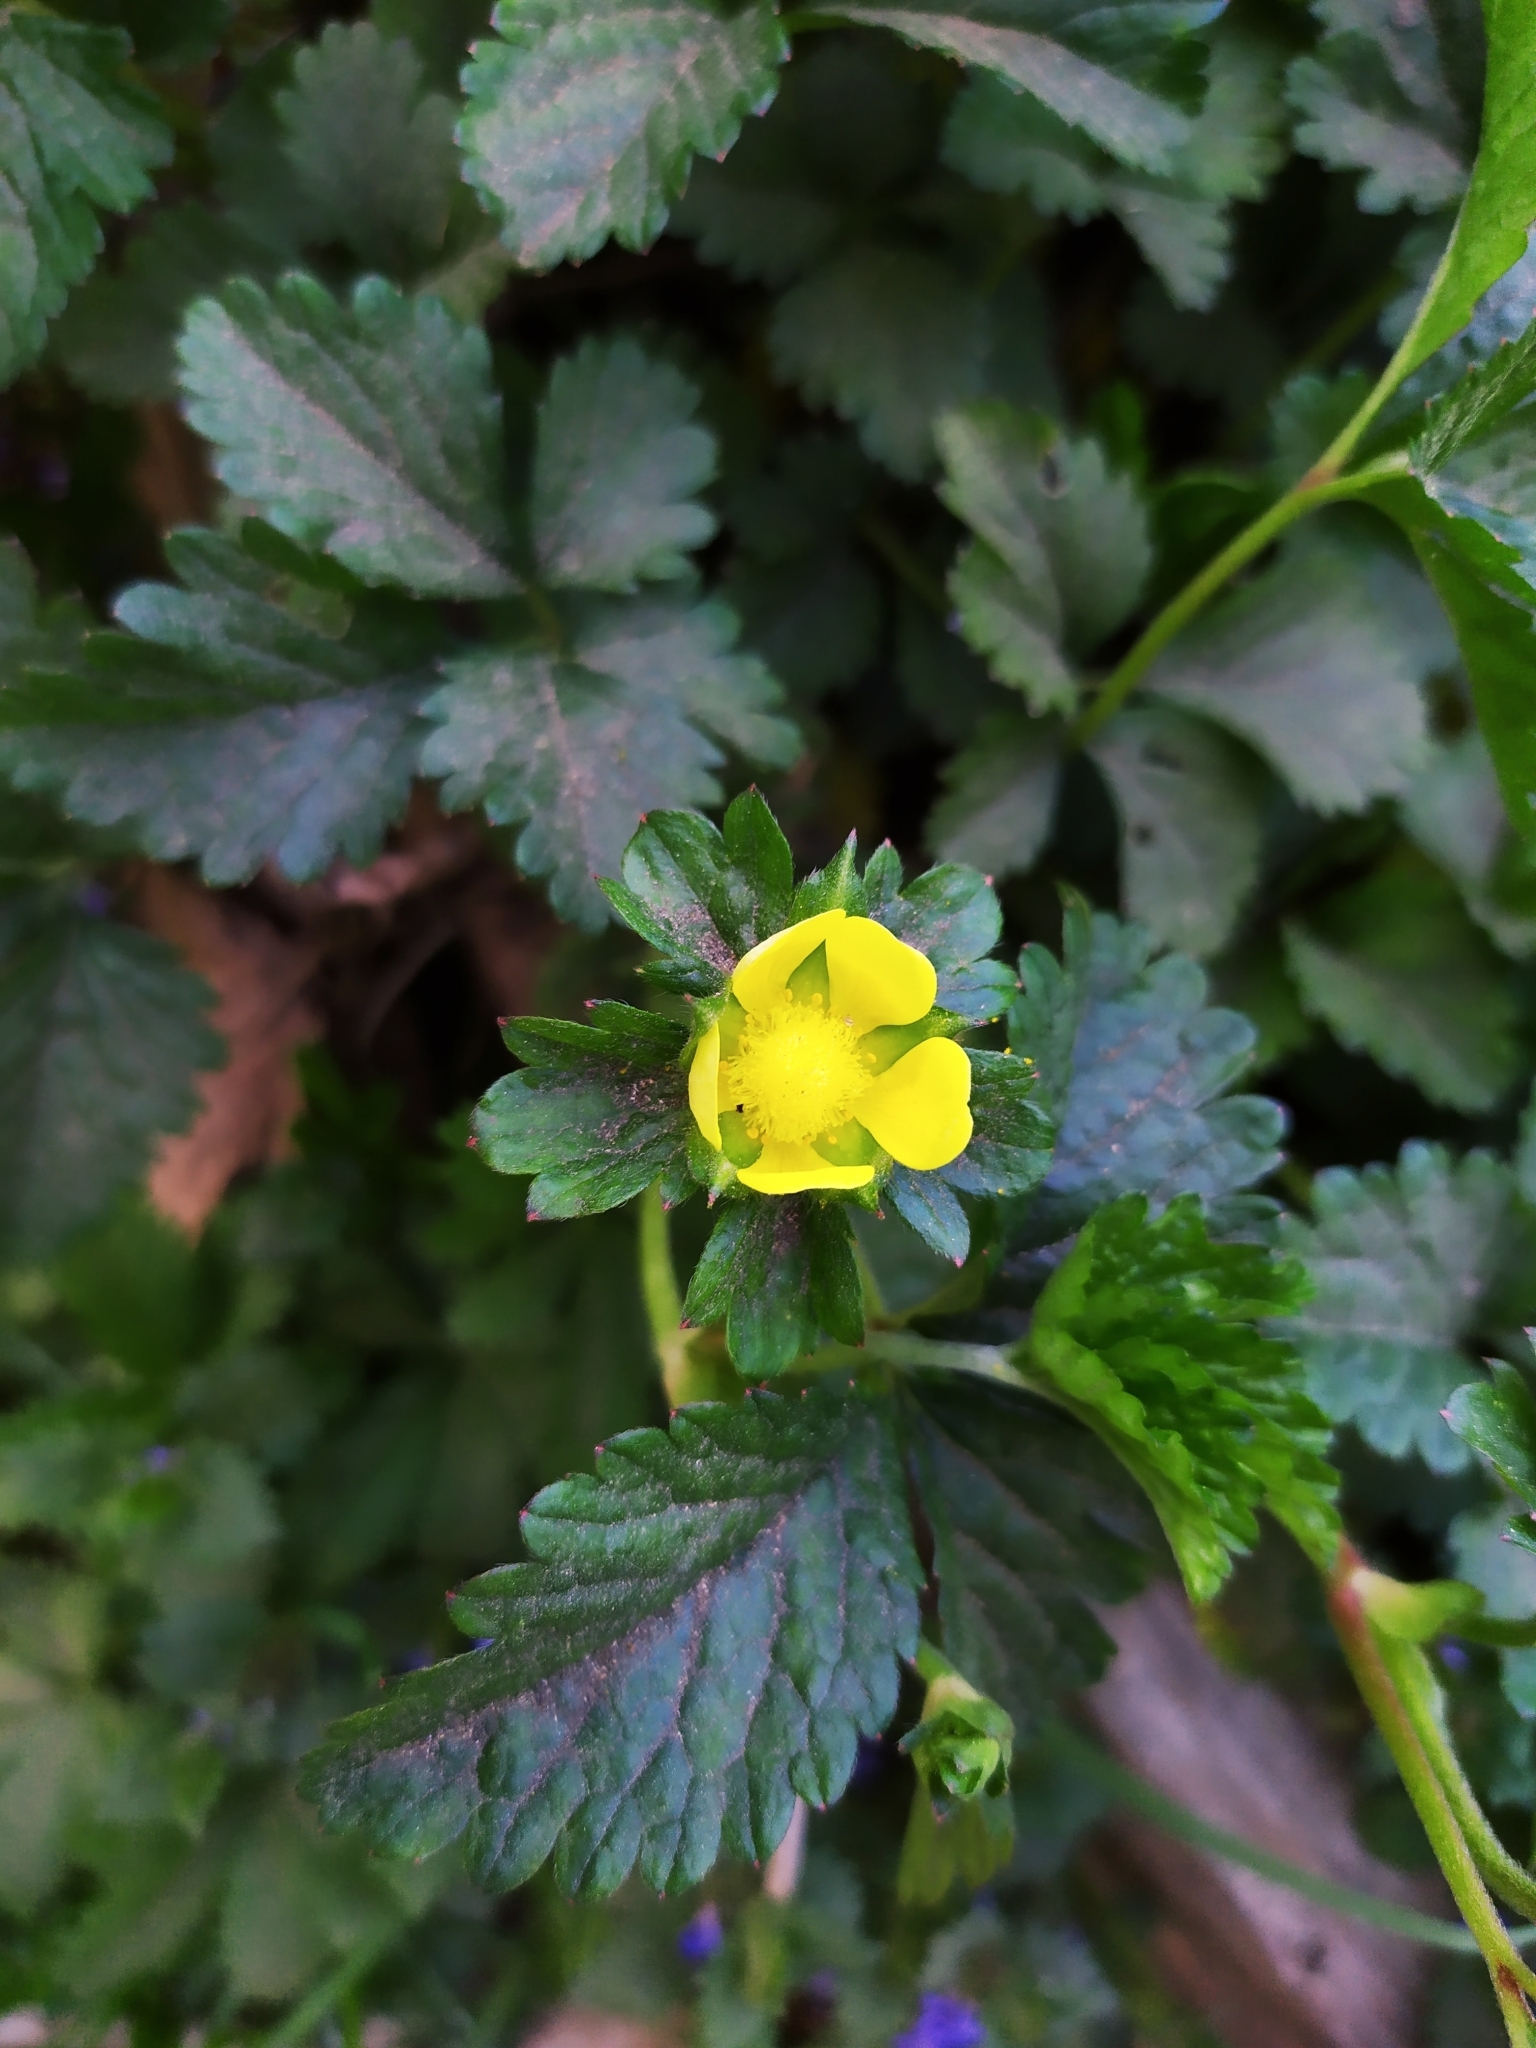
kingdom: Plantae
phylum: Tracheophyta
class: Magnoliopsida
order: Rosales
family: Rosaceae
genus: Potentilla
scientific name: Potentilla indica
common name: Yellow-flowered strawberry
